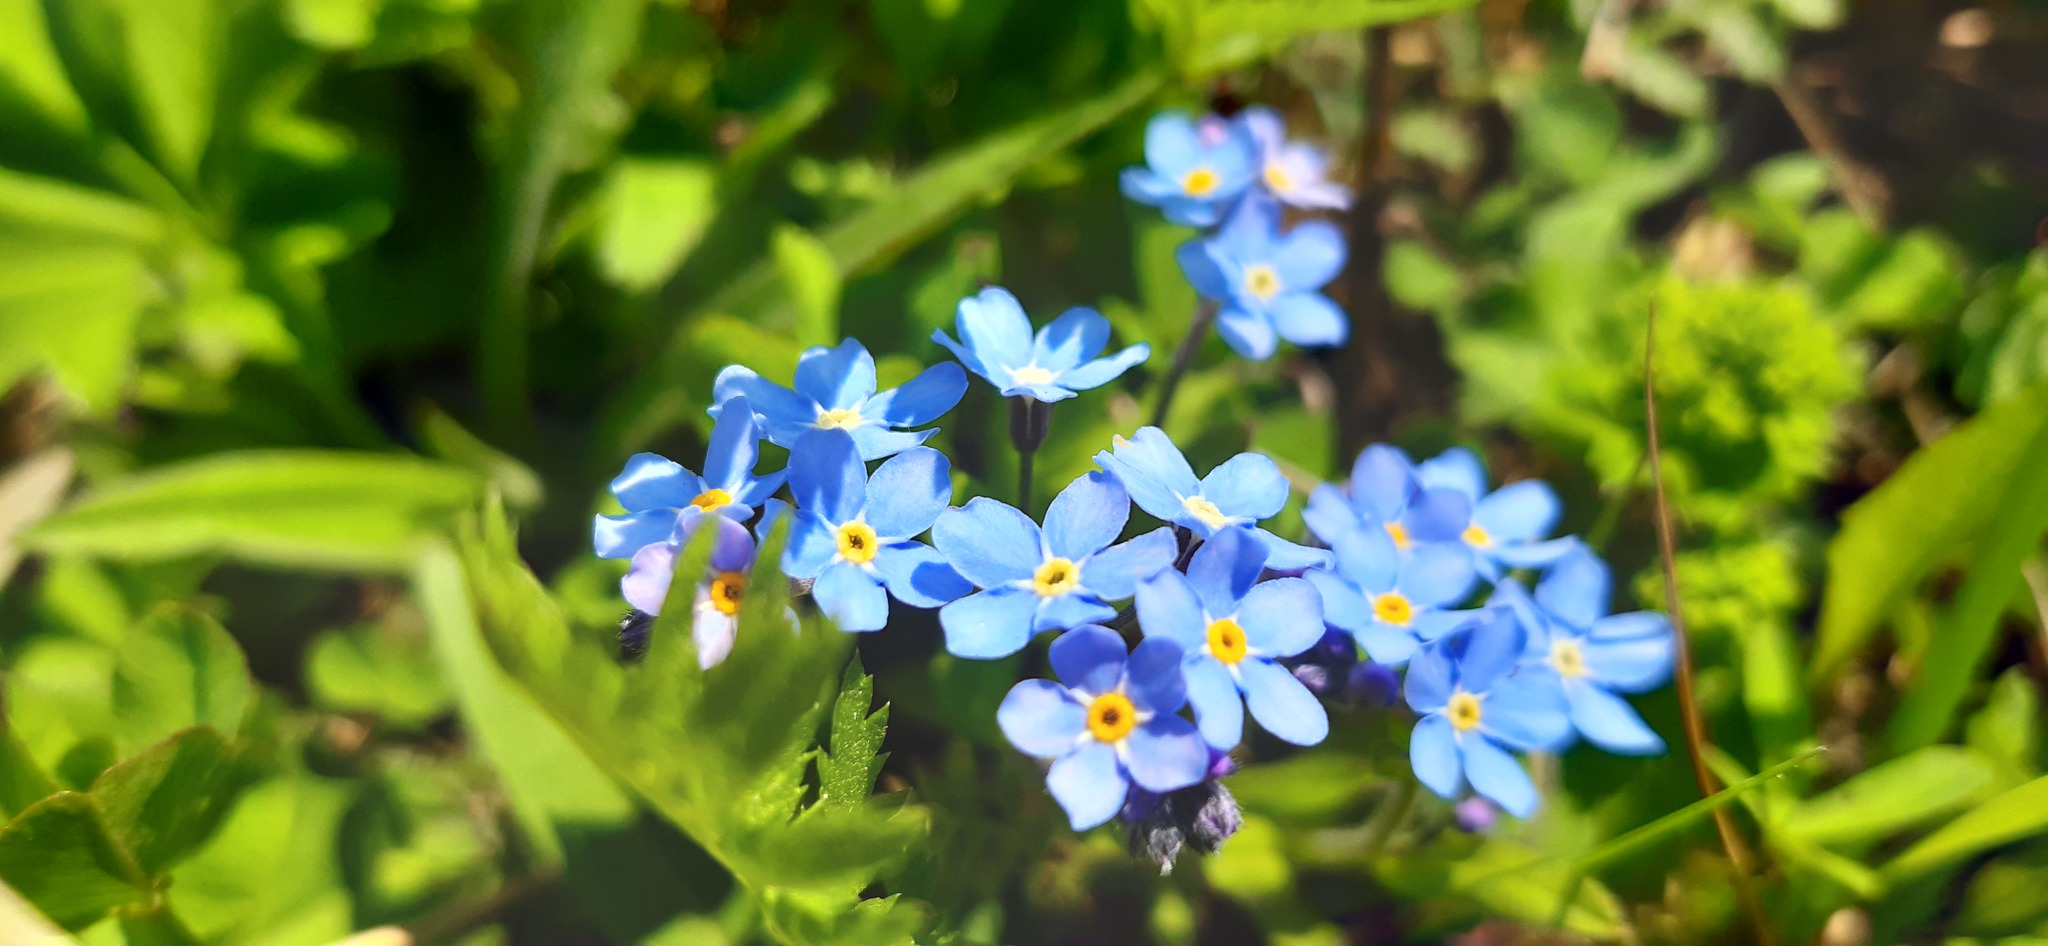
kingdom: Plantae
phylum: Tracheophyta
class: Magnoliopsida
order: Boraginales
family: Boraginaceae
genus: Myosotis
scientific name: Myosotis sylvatica
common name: Wood forget-me-not
